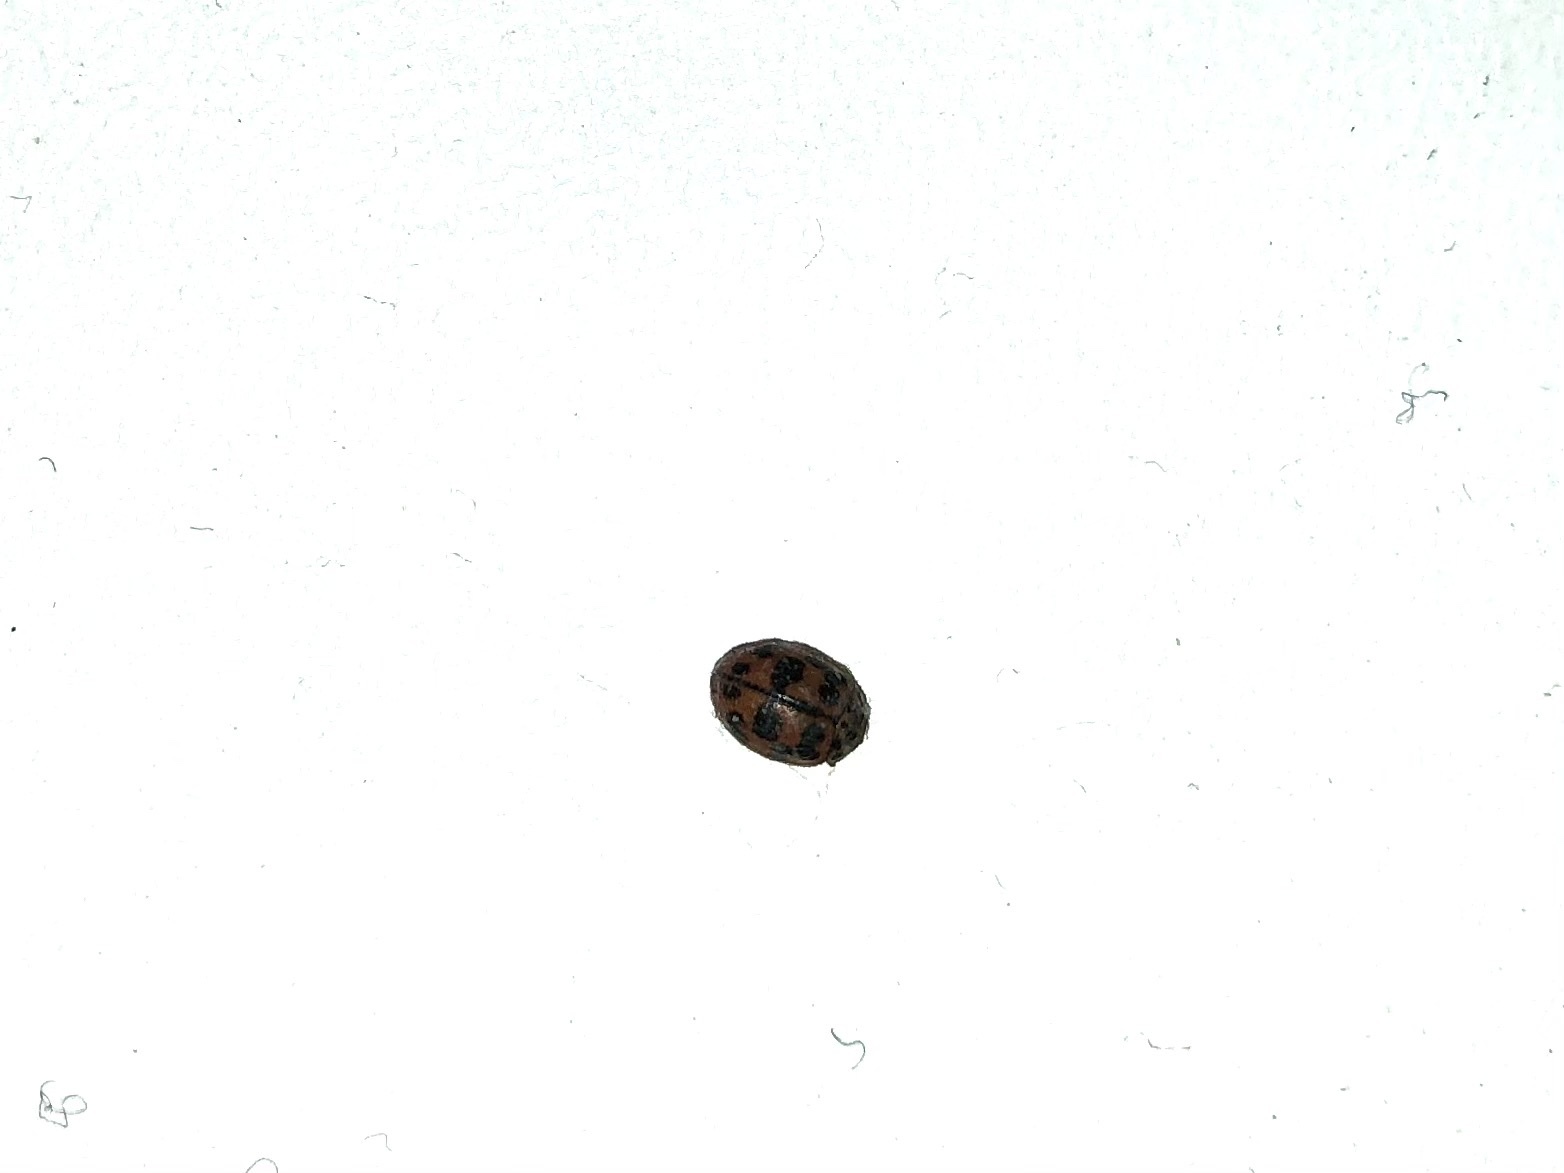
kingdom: Animalia
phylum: Arthropoda
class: Insecta
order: Coleoptera
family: Coccinellidae
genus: Oenopia
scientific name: Oenopia conglobata
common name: Ladybird beetle
